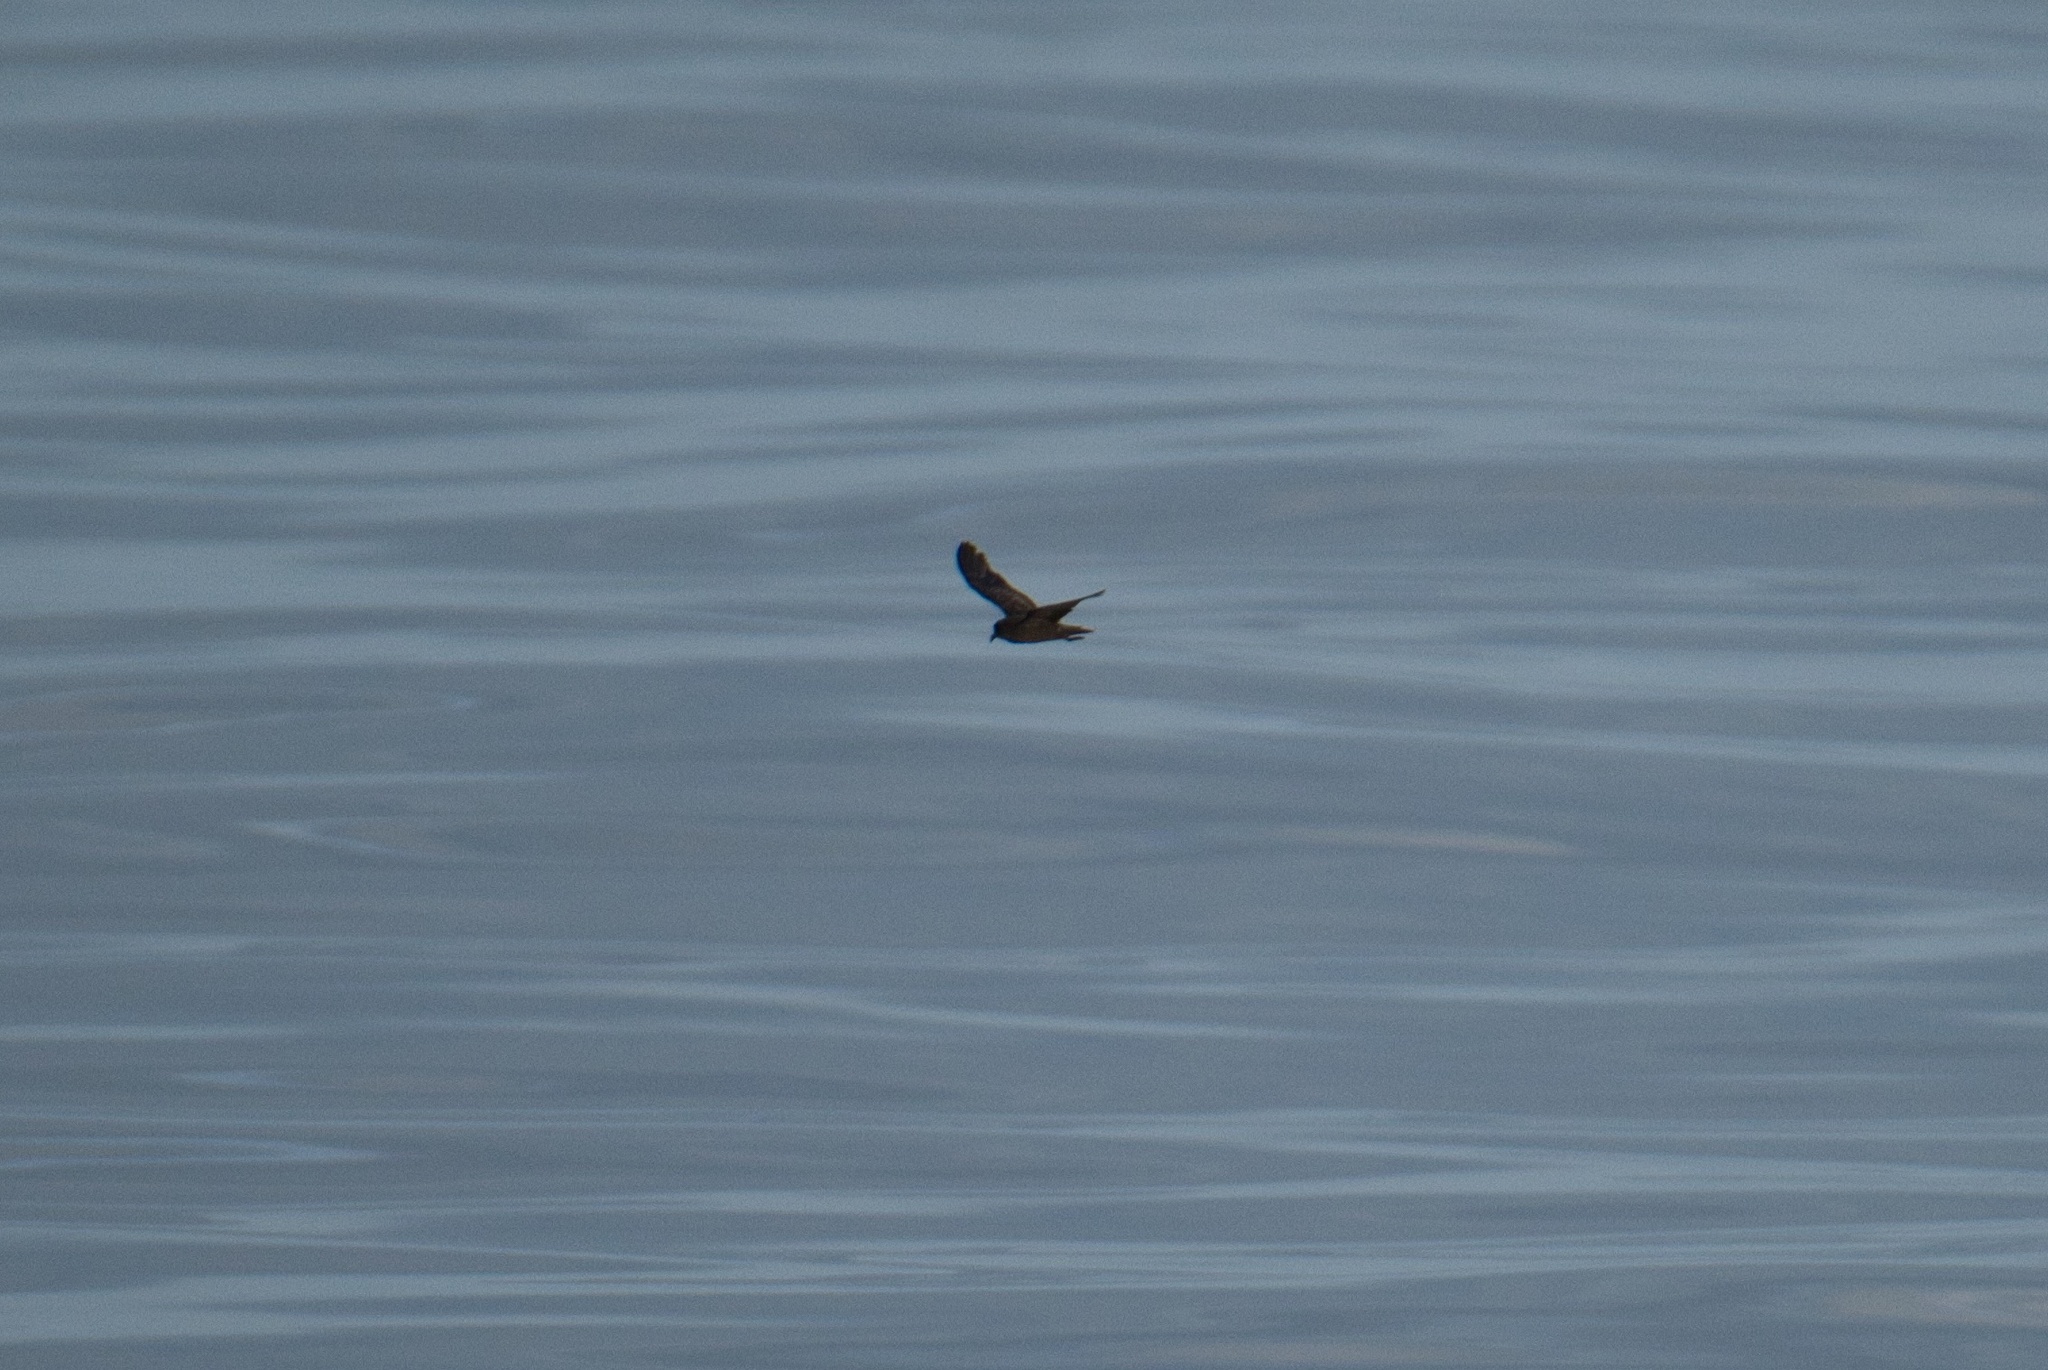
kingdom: Animalia
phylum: Chordata
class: Aves
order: Procellariiformes
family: Hydrobatidae
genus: Oceanodroma
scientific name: Oceanodroma microsoma
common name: Least storm-petrel
